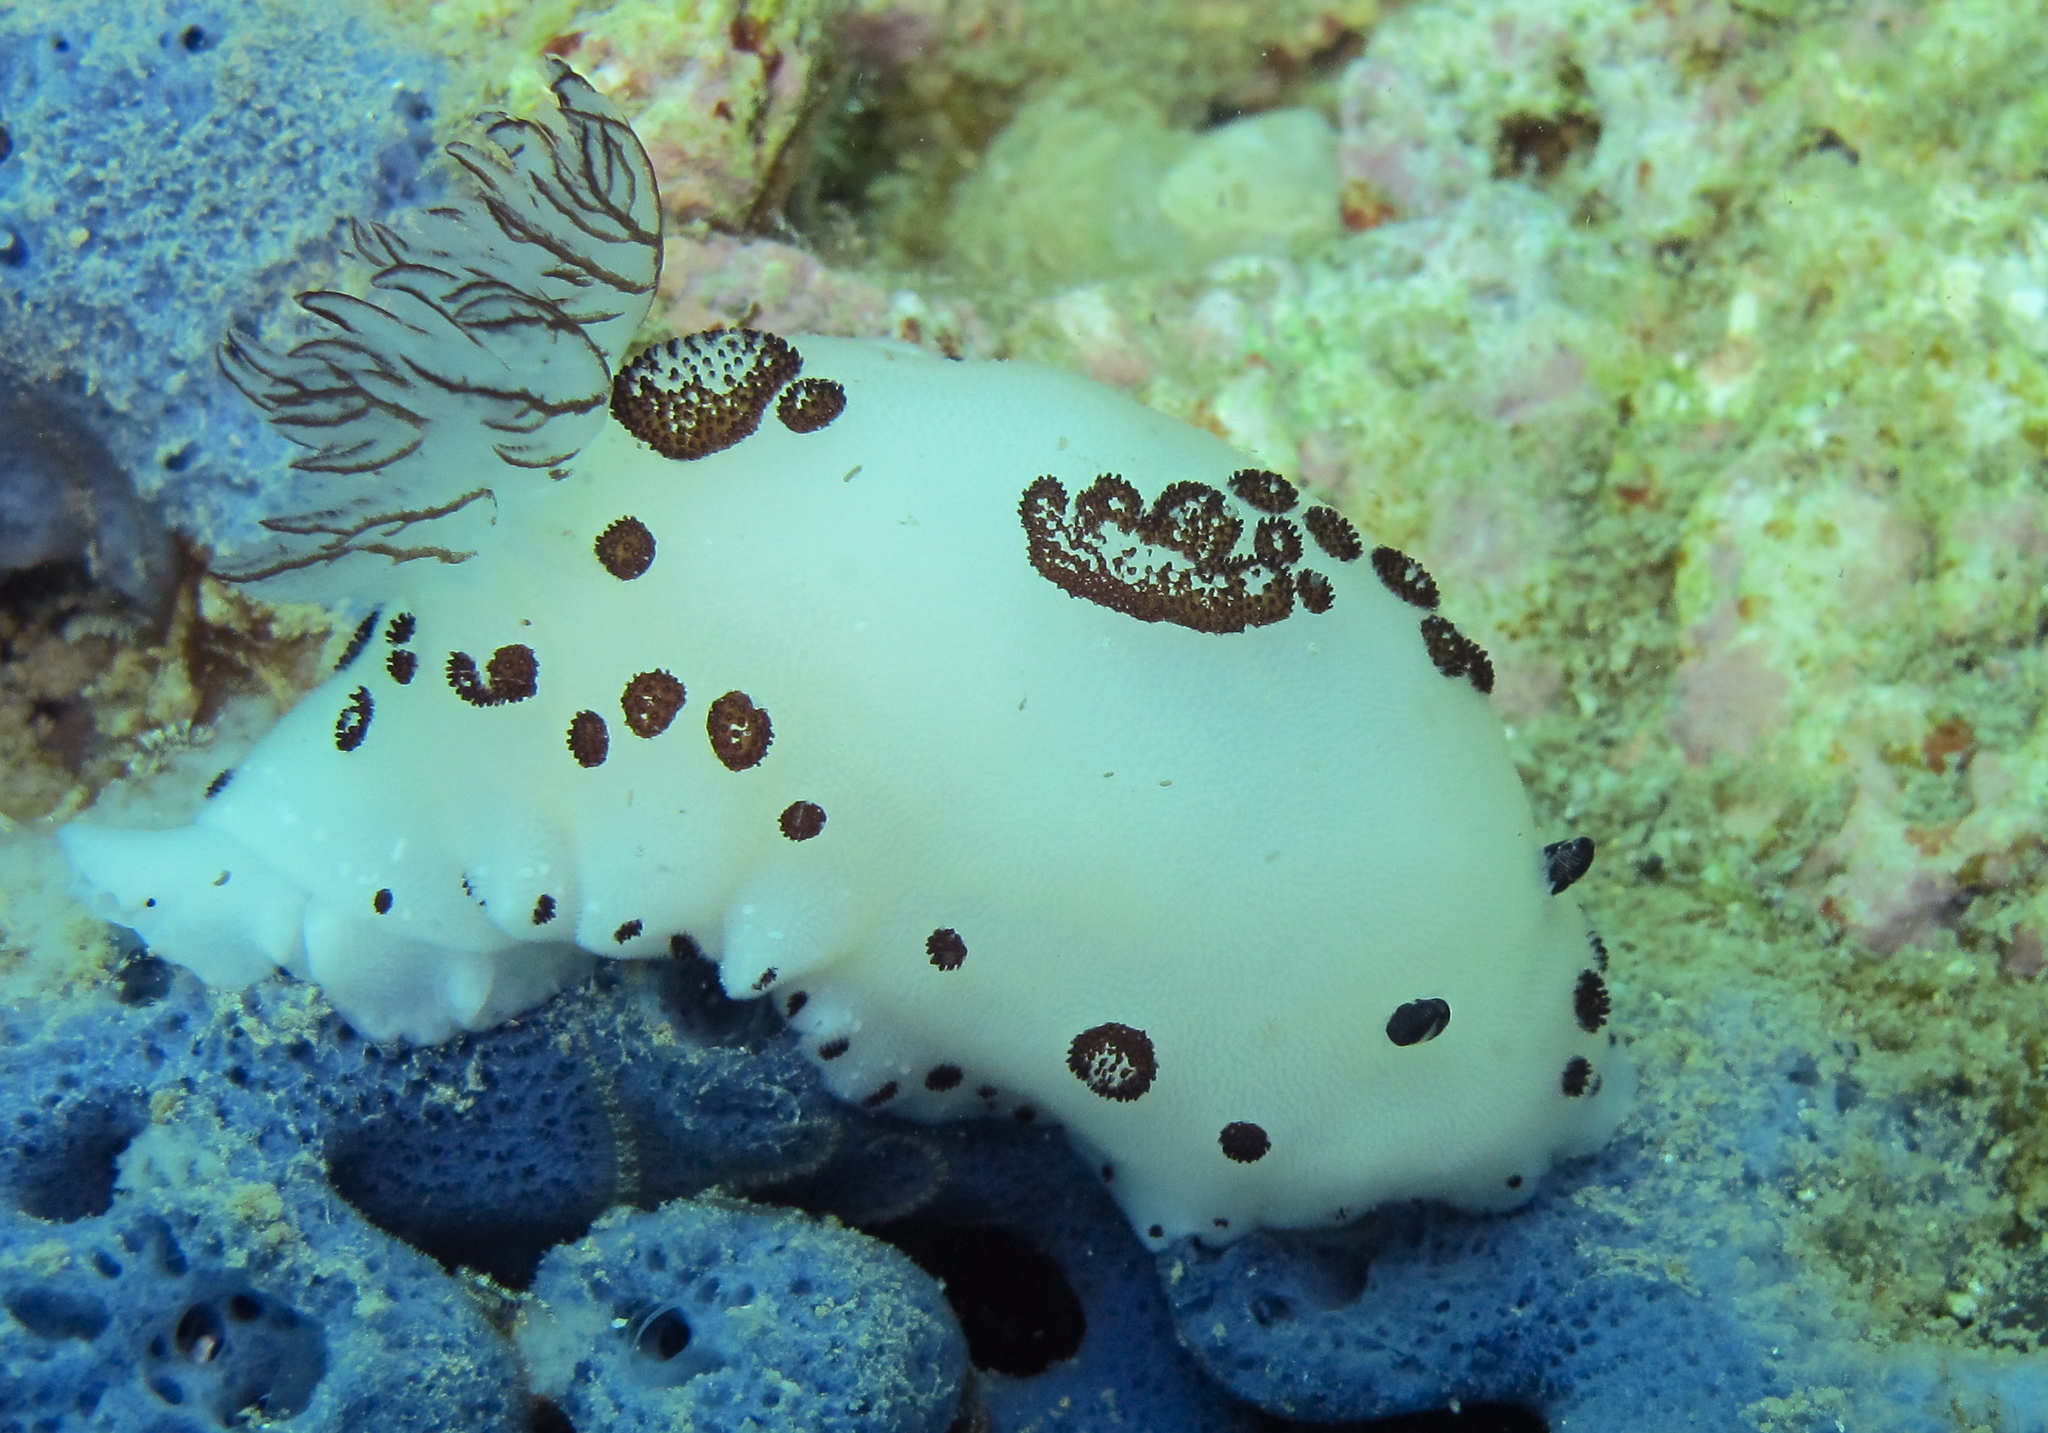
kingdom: Animalia
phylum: Mollusca
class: Gastropoda
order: Nudibranchia
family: Discodorididae
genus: Jorunna
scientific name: Jorunna funebris
